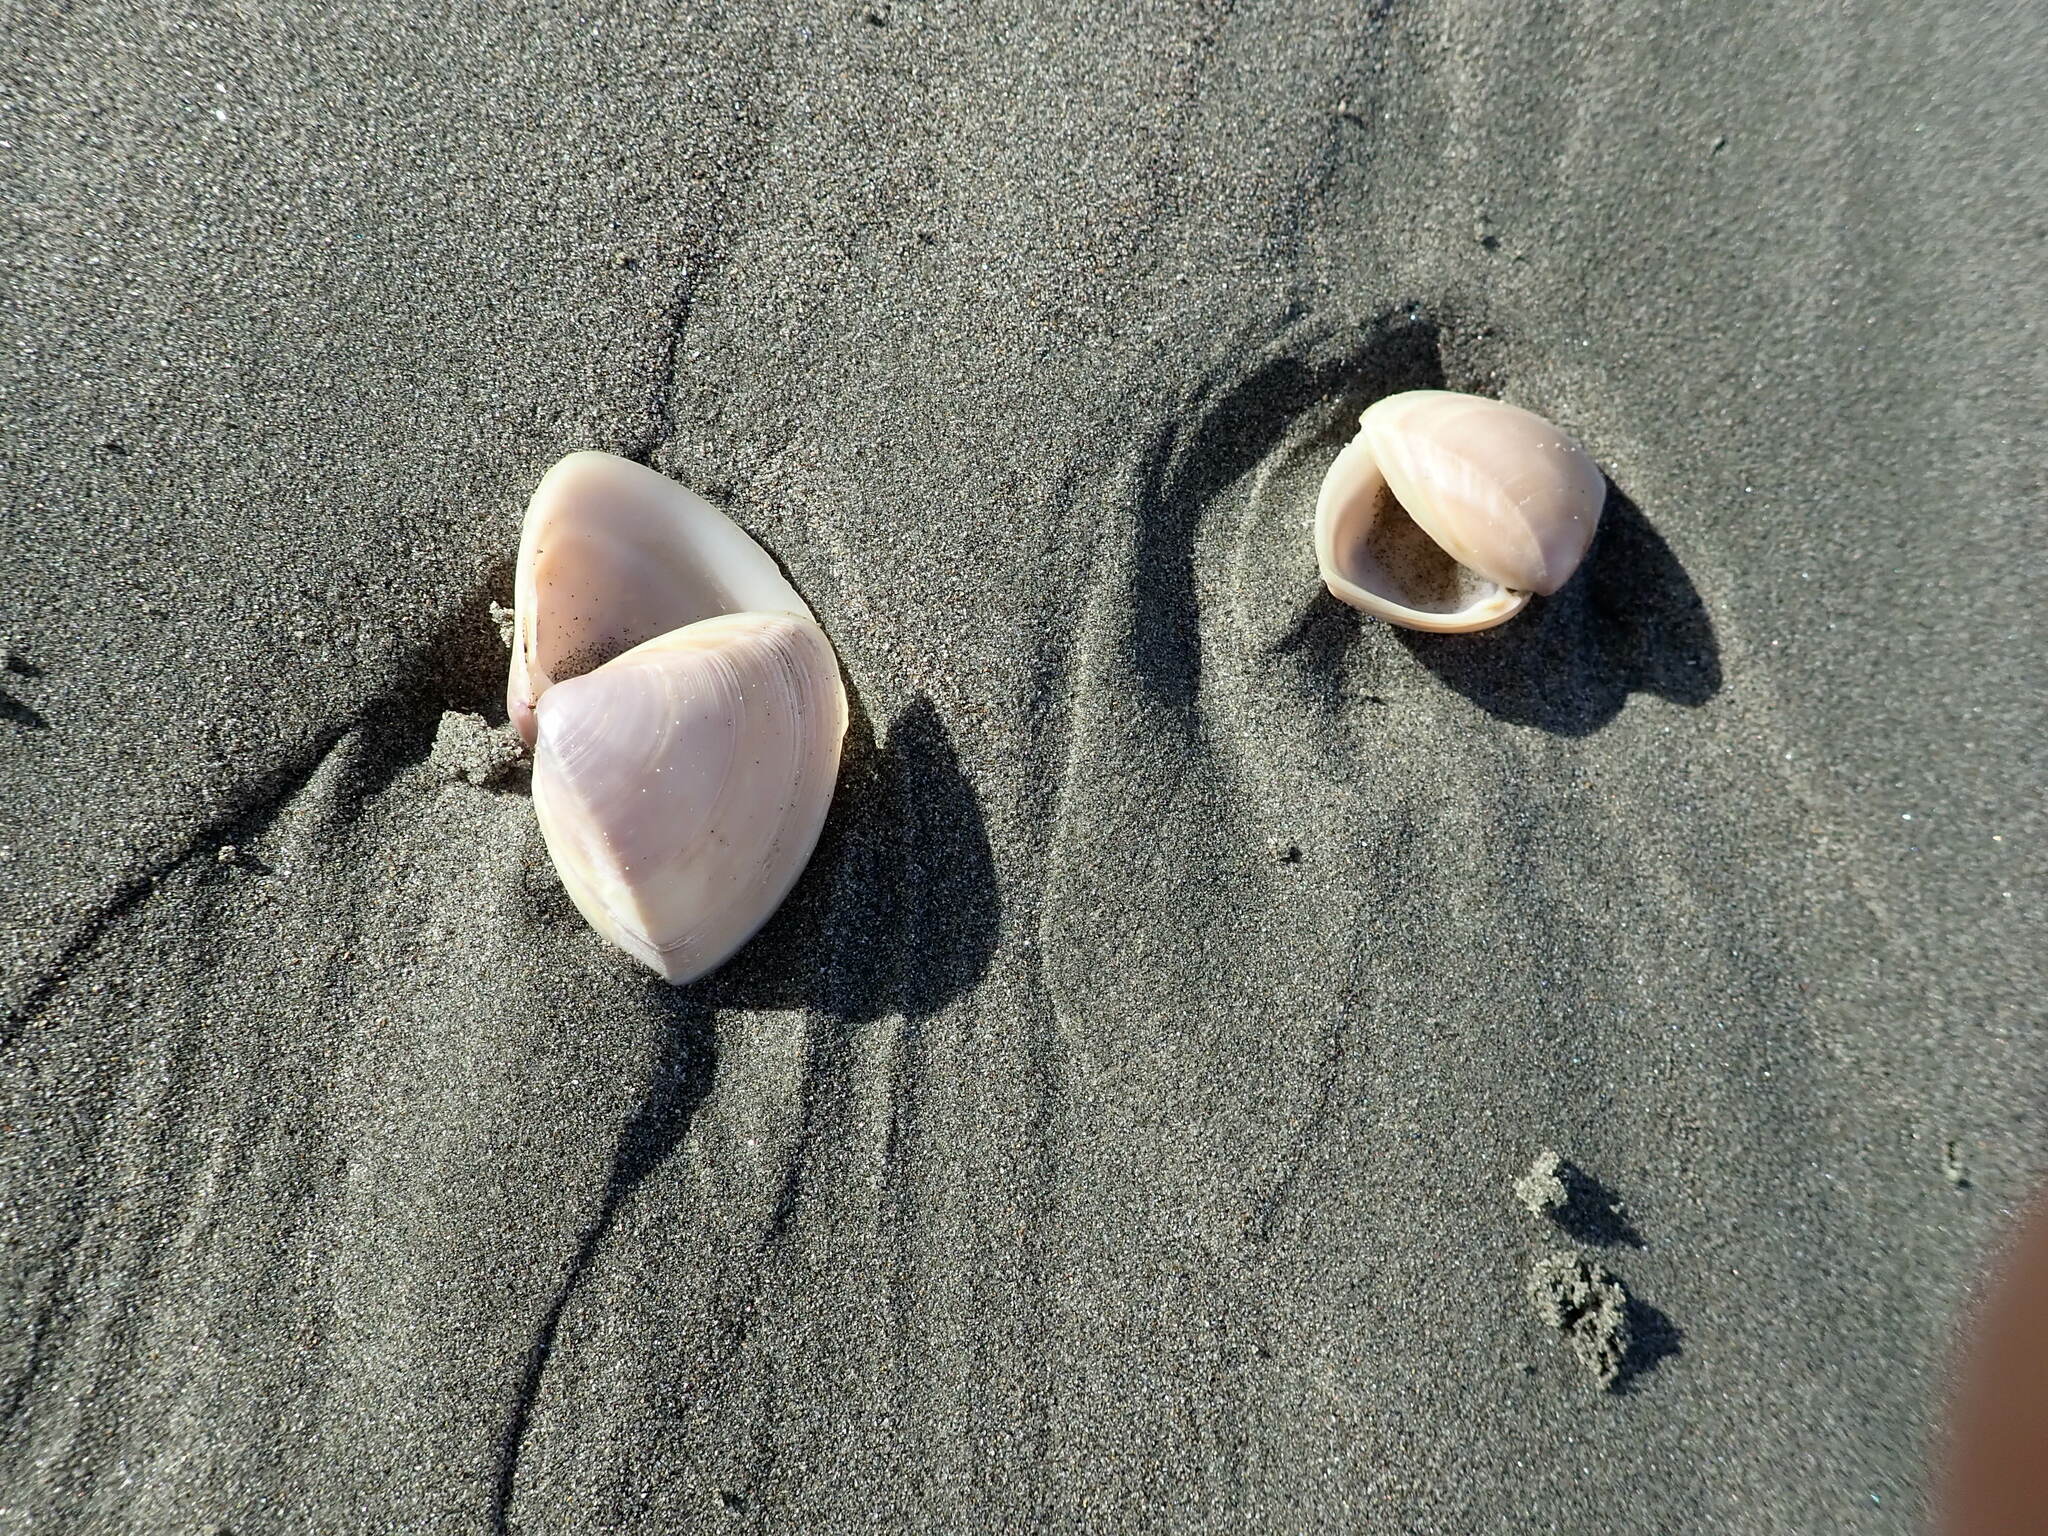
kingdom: Animalia
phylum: Mollusca
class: Bivalvia
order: Venerida
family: Mactridae
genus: Crassula
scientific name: Crassula aequilatera
